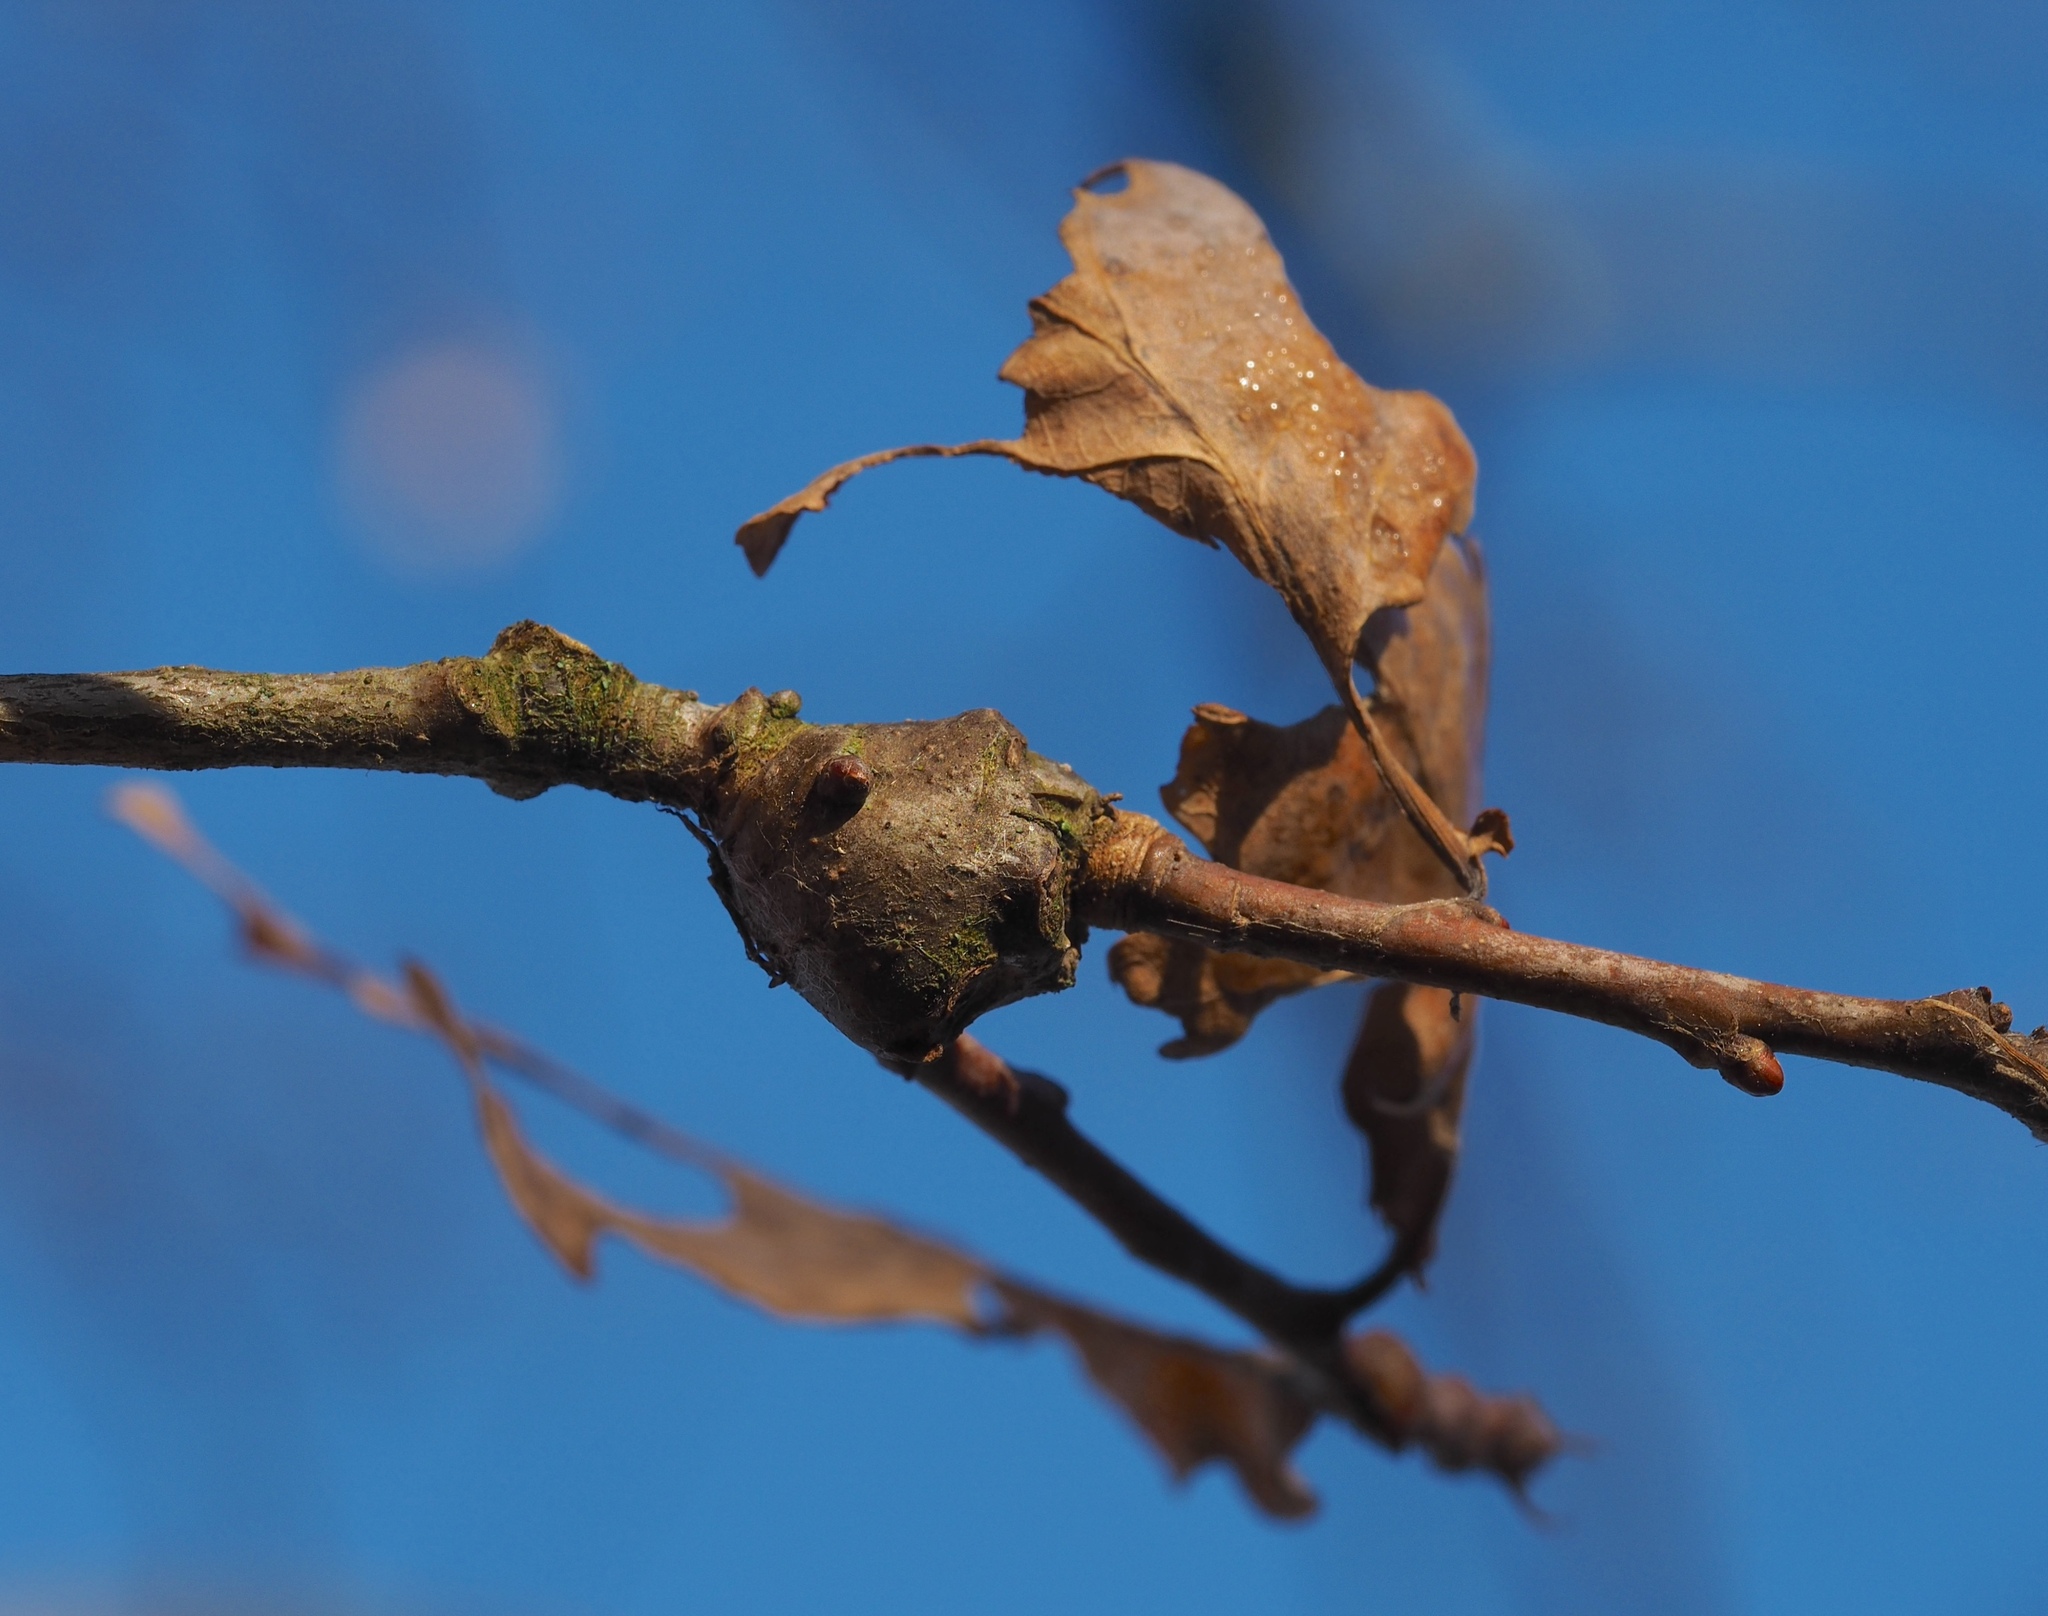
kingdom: Animalia
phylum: Arthropoda
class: Insecta
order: Hymenoptera
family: Cynipidae
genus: Andricus
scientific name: Andricus inflator
